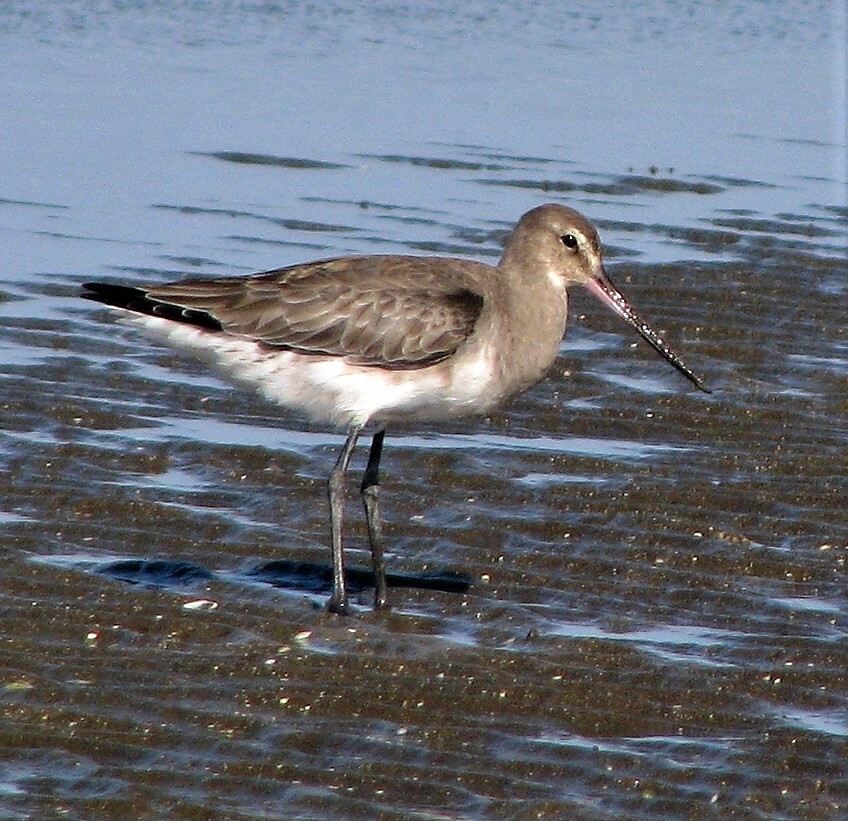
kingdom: Animalia
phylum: Chordata
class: Aves
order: Charadriiformes
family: Scolopacidae
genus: Limosa
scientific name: Limosa haemastica
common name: Hudsonian godwit
